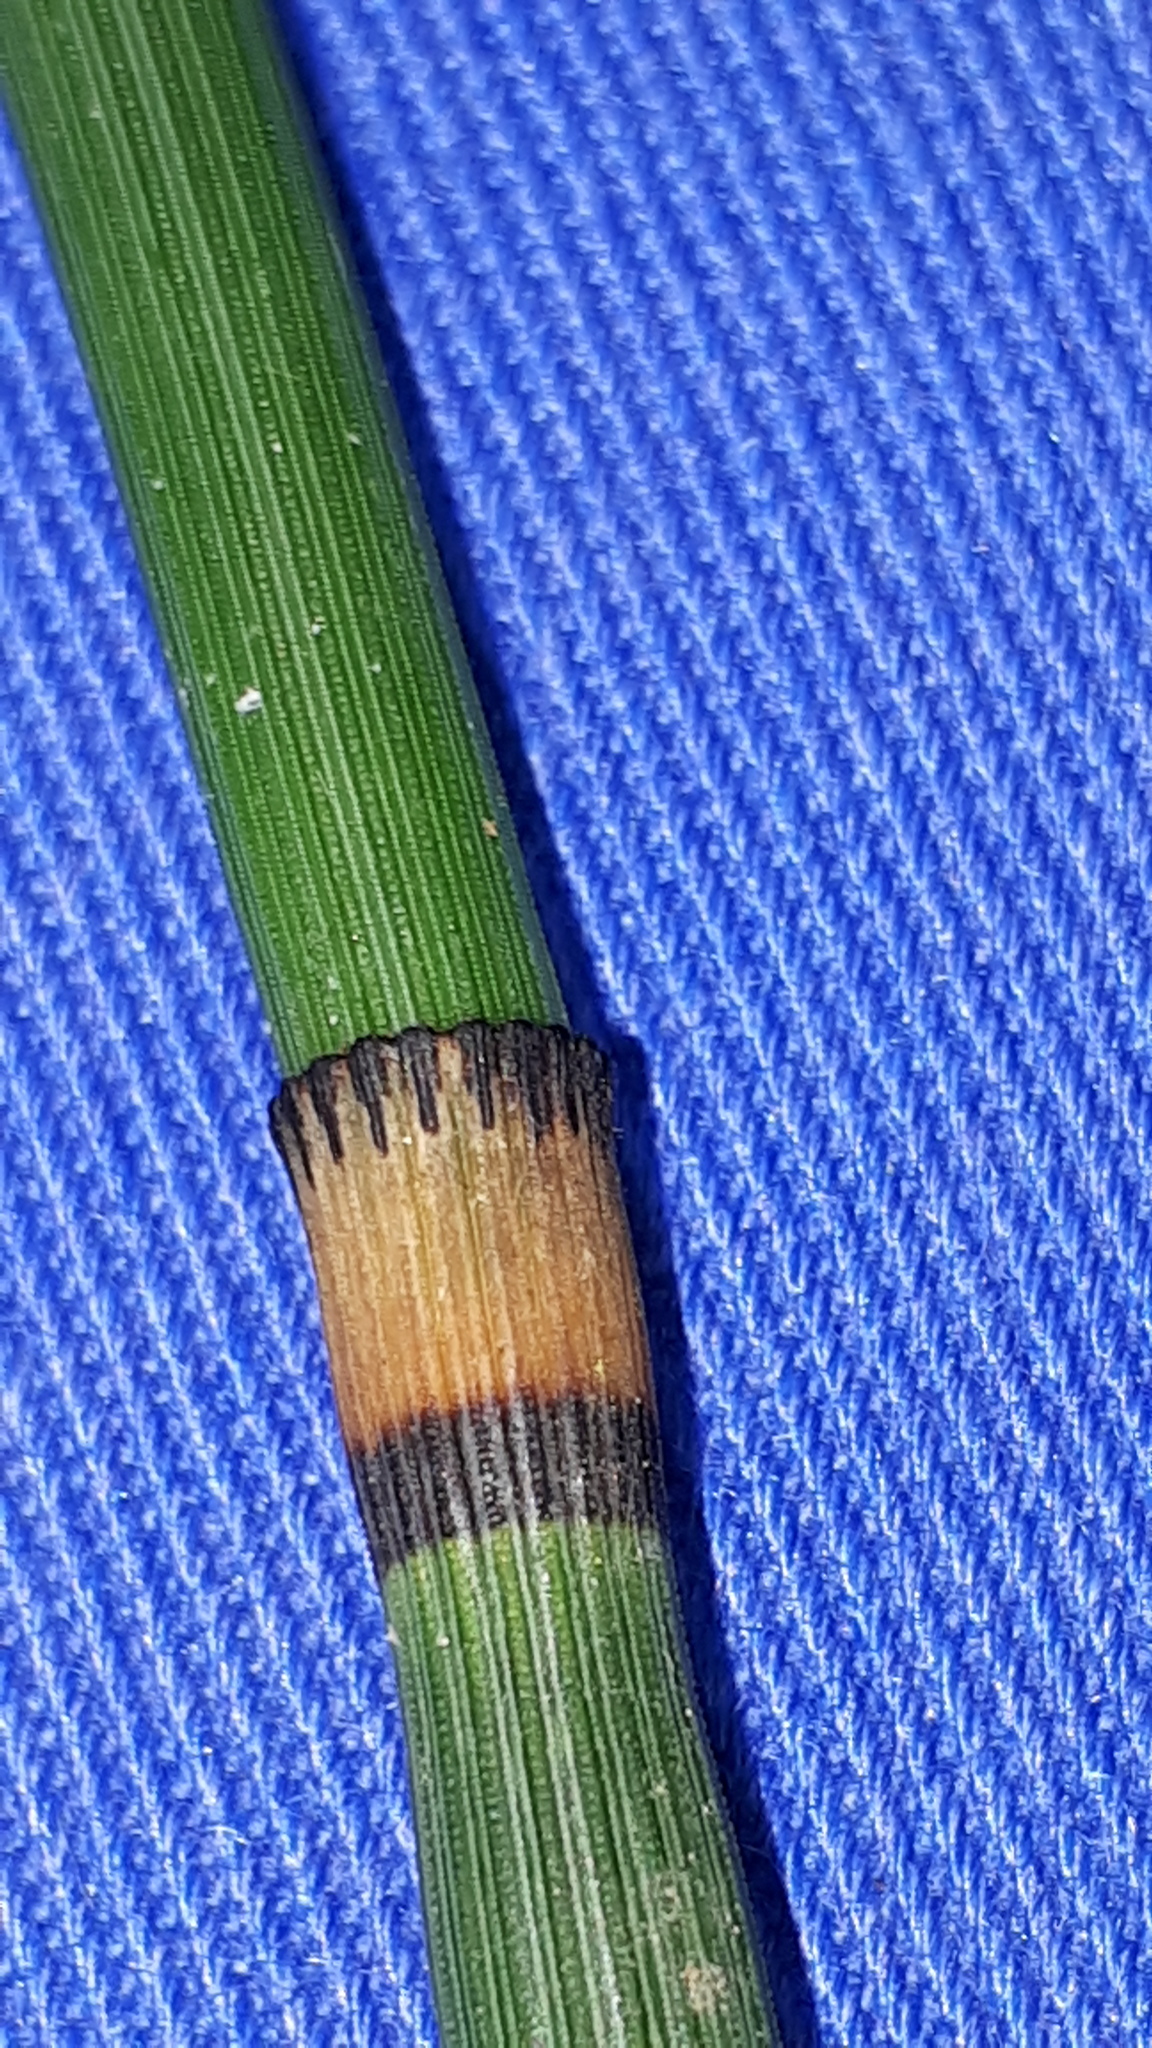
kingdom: Plantae
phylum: Tracheophyta
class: Polypodiopsida
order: Equisetales
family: Equisetaceae
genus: Equisetum
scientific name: Equisetum hyemale
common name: Rough horsetail
